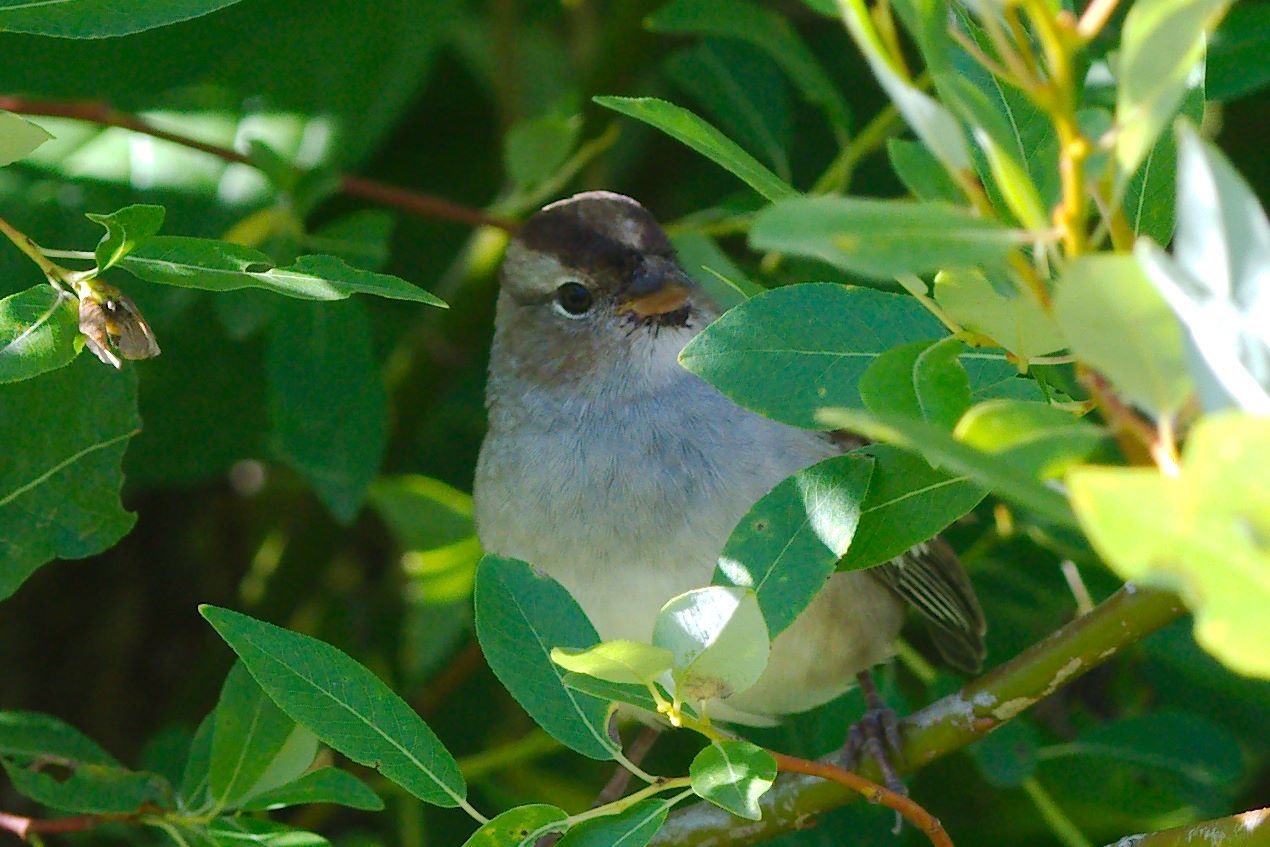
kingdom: Animalia
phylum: Chordata
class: Aves
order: Passeriformes
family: Passerellidae
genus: Zonotrichia
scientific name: Zonotrichia leucophrys
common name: White-crowned sparrow
